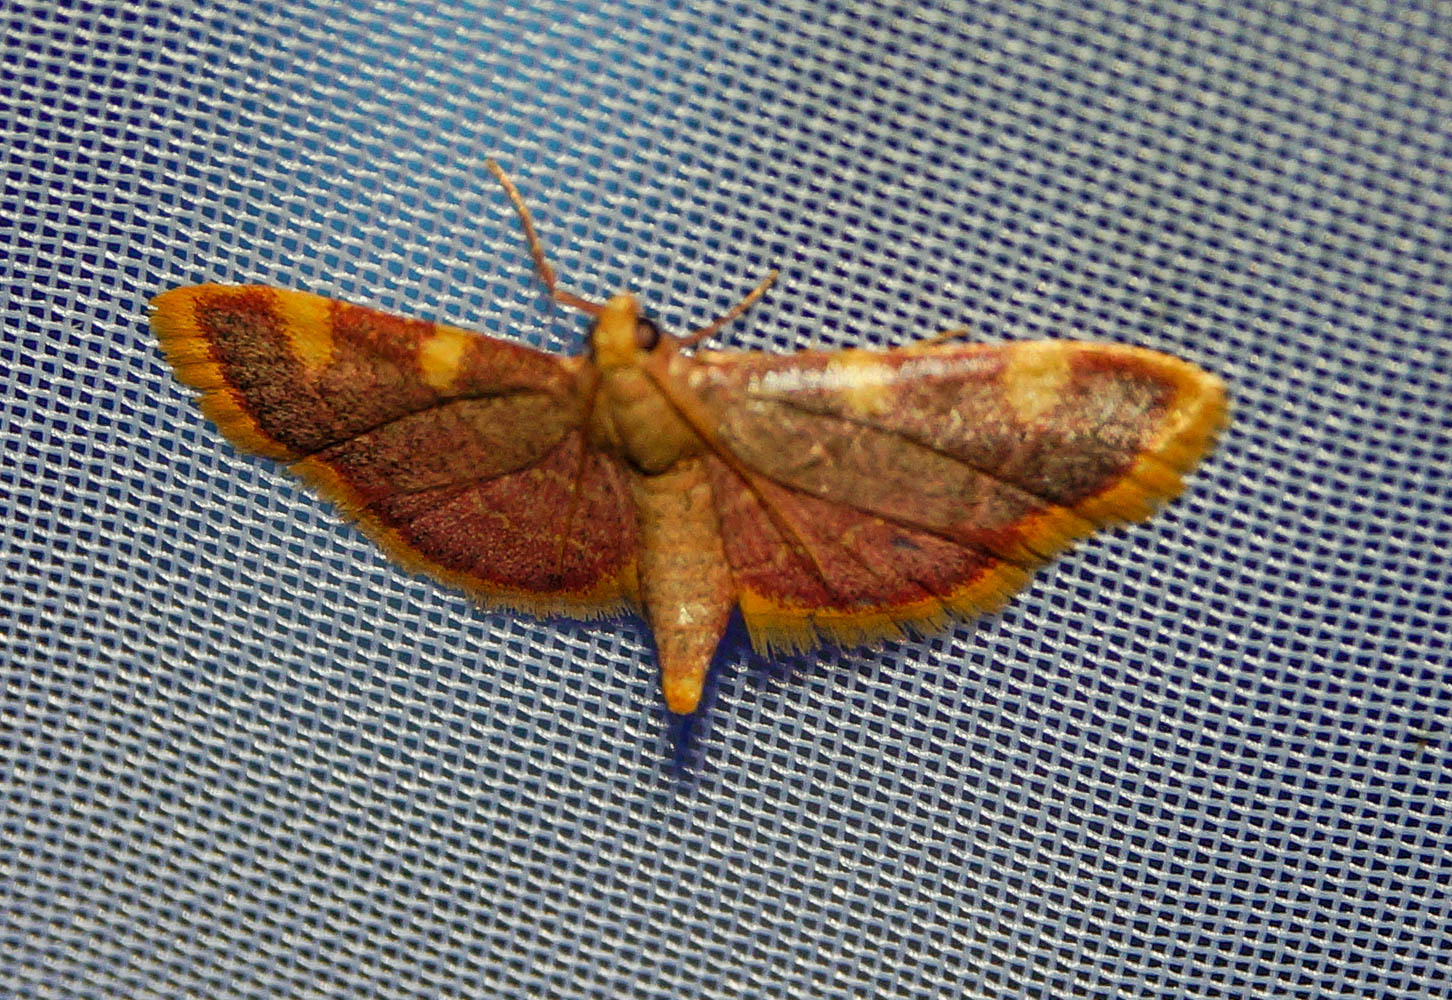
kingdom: Animalia
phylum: Arthropoda
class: Insecta
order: Lepidoptera
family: Pyralidae
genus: Hypsopygia
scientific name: Hypsopygia costalis
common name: Gold triangle
